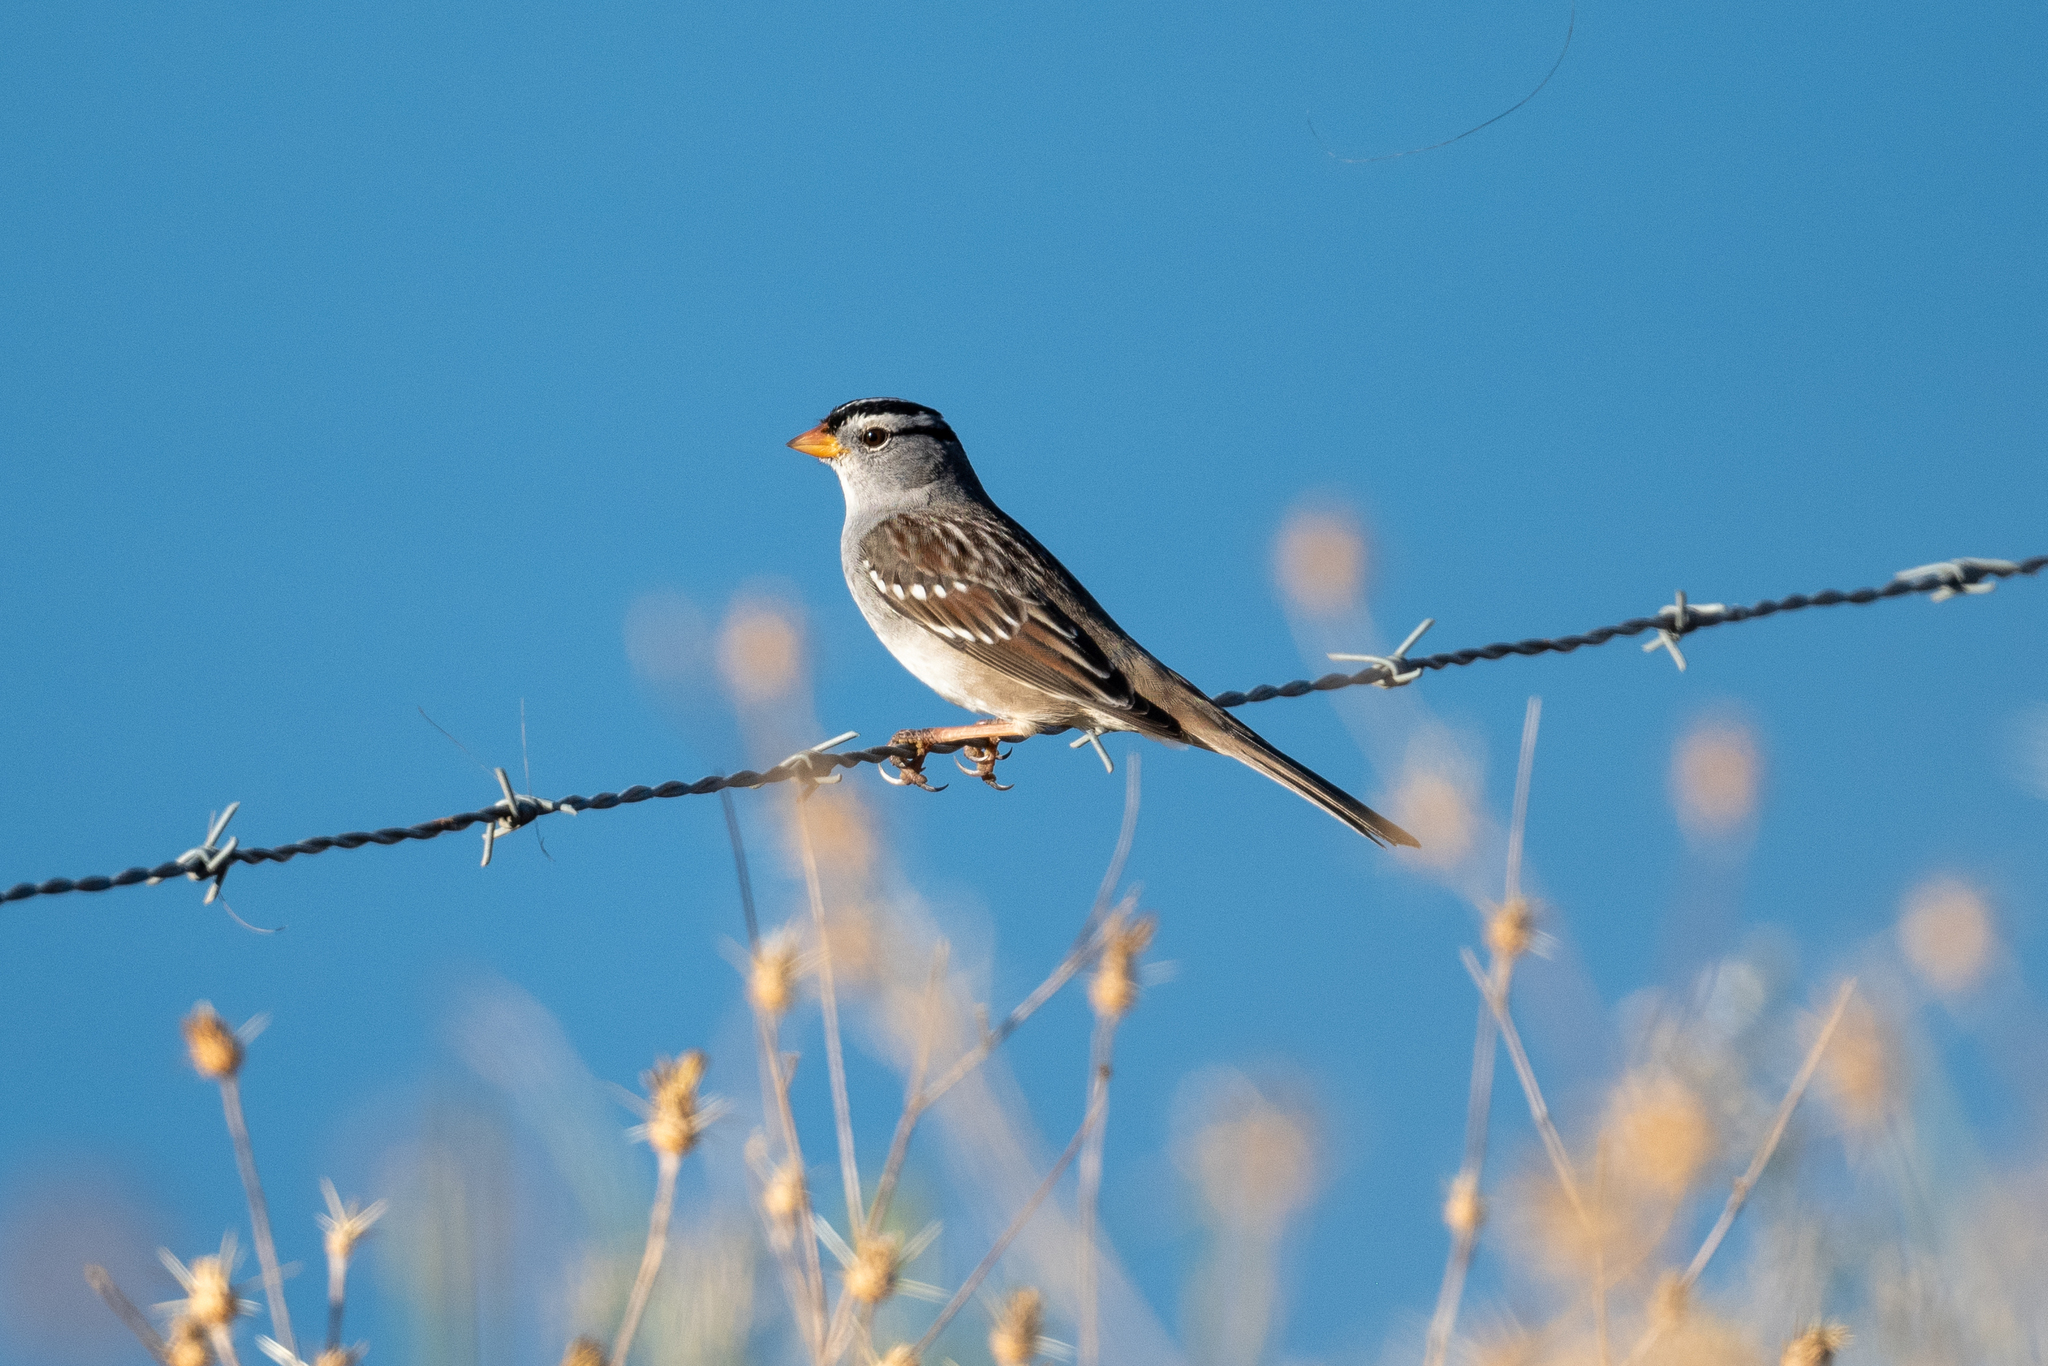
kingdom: Animalia
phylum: Chordata
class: Aves
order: Passeriformes
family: Passerellidae
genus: Zonotrichia
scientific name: Zonotrichia leucophrys
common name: White-crowned sparrow
